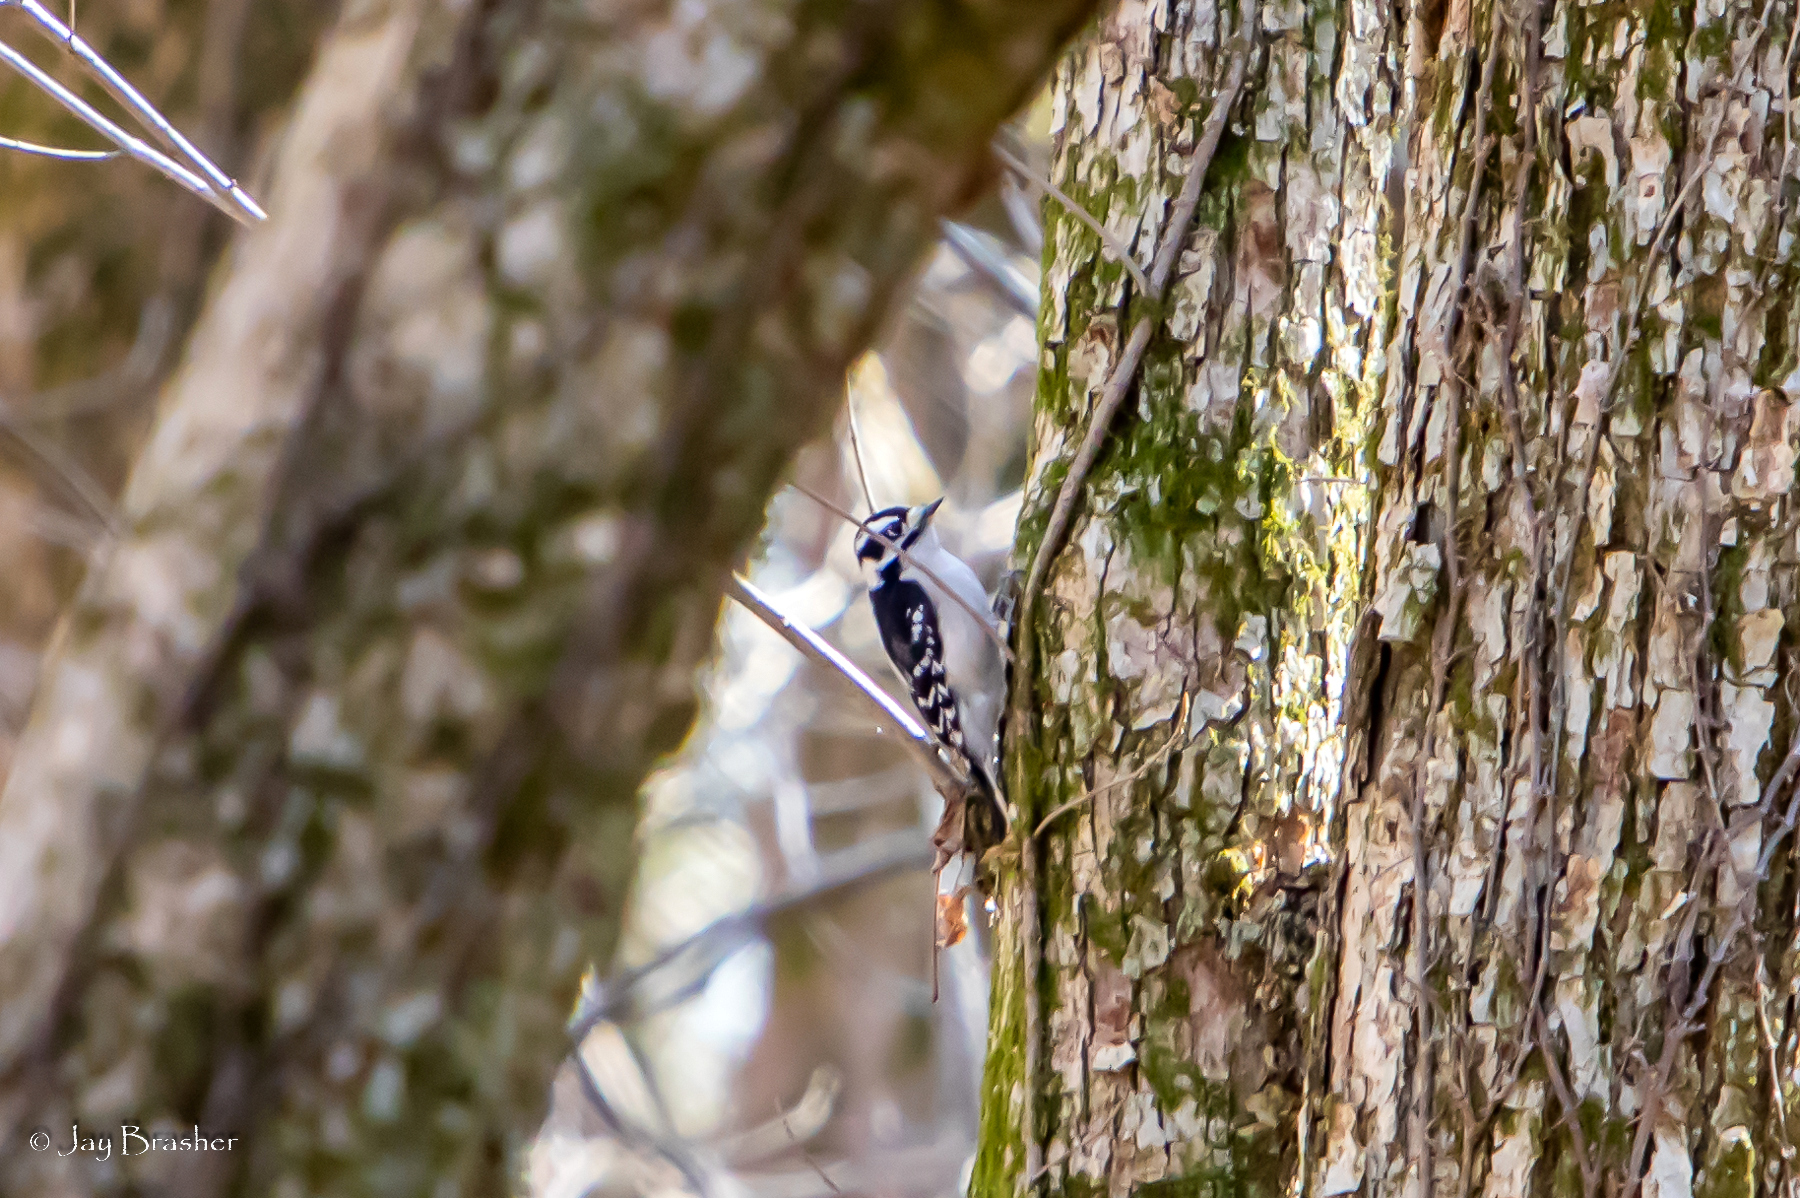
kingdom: Animalia
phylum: Chordata
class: Aves
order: Piciformes
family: Picidae
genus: Dryobates
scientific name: Dryobates pubescens
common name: Downy woodpecker
